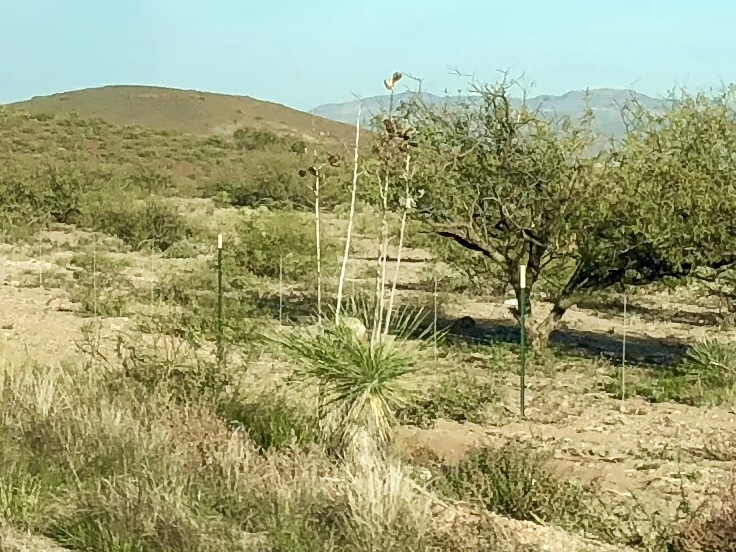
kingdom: Plantae
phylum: Tracheophyta
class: Liliopsida
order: Asparagales
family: Asparagaceae
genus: Yucca
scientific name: Yucca elata
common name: Palmella
